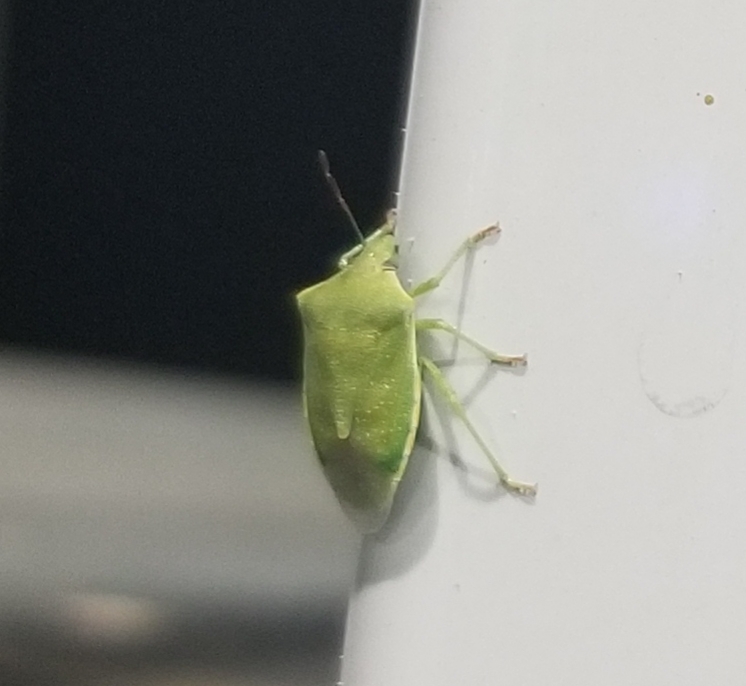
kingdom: Animalia
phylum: Arthropoda
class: Insecta
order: Hemiptera
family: Pentatomidae
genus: Thyanta
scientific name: Thyanta custator
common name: Stink bug
